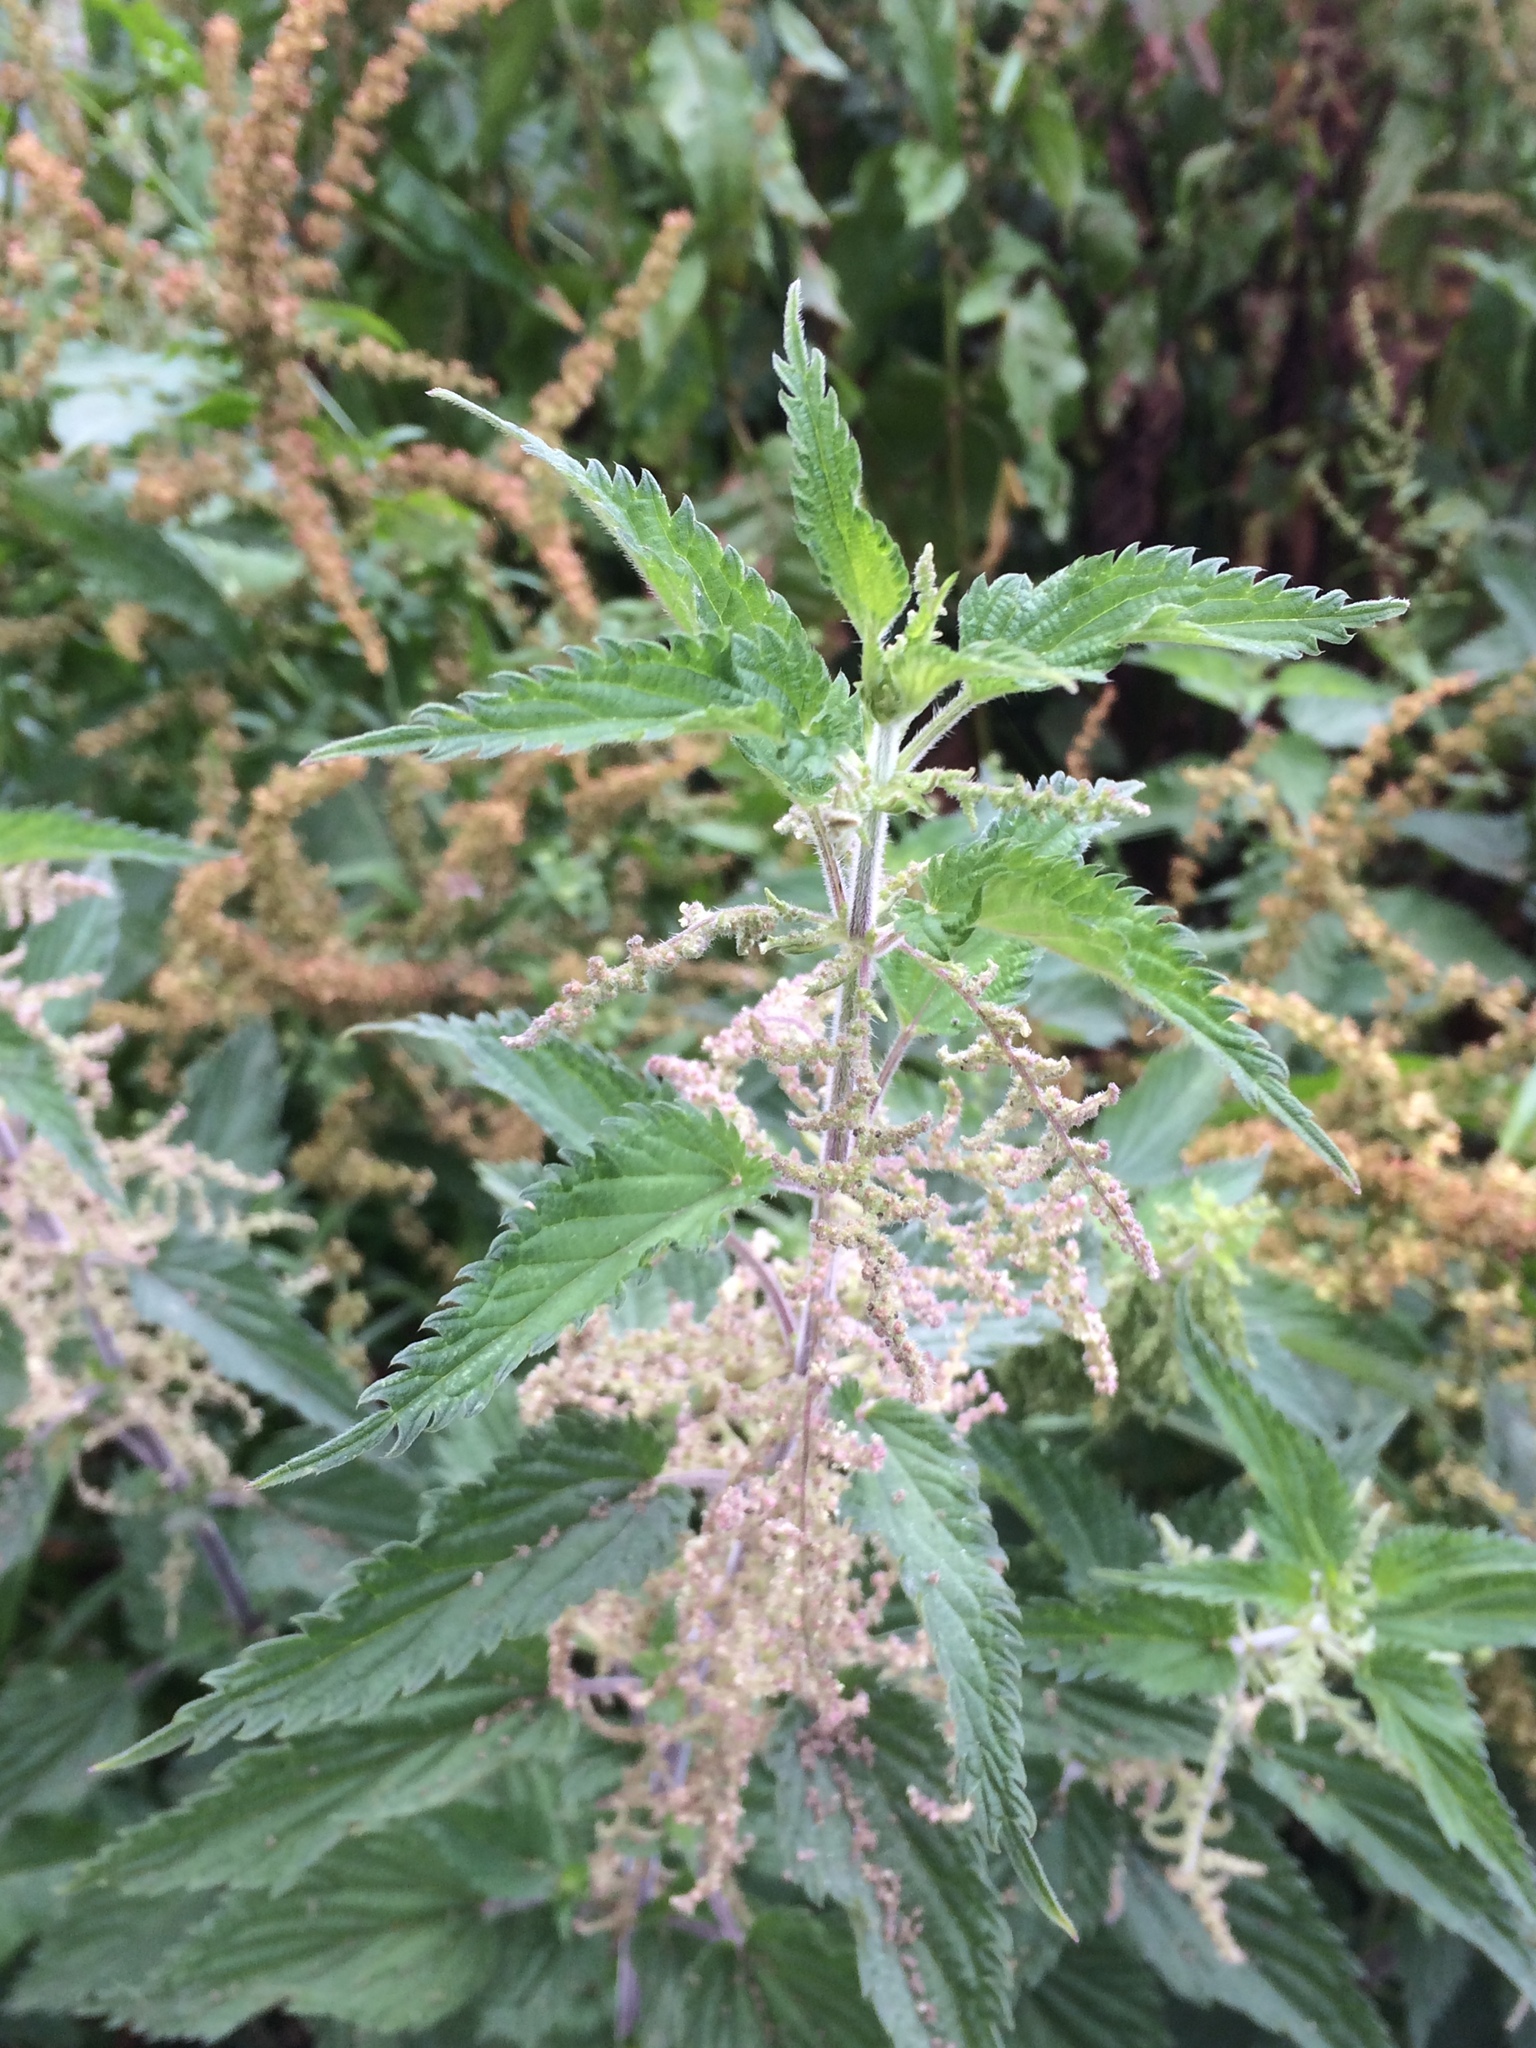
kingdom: Plantae
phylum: Tracheophyta
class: Magnoliopsida
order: Rosales
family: Urticaceae
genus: Urtica
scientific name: Urtica dioica
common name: Common nettle
